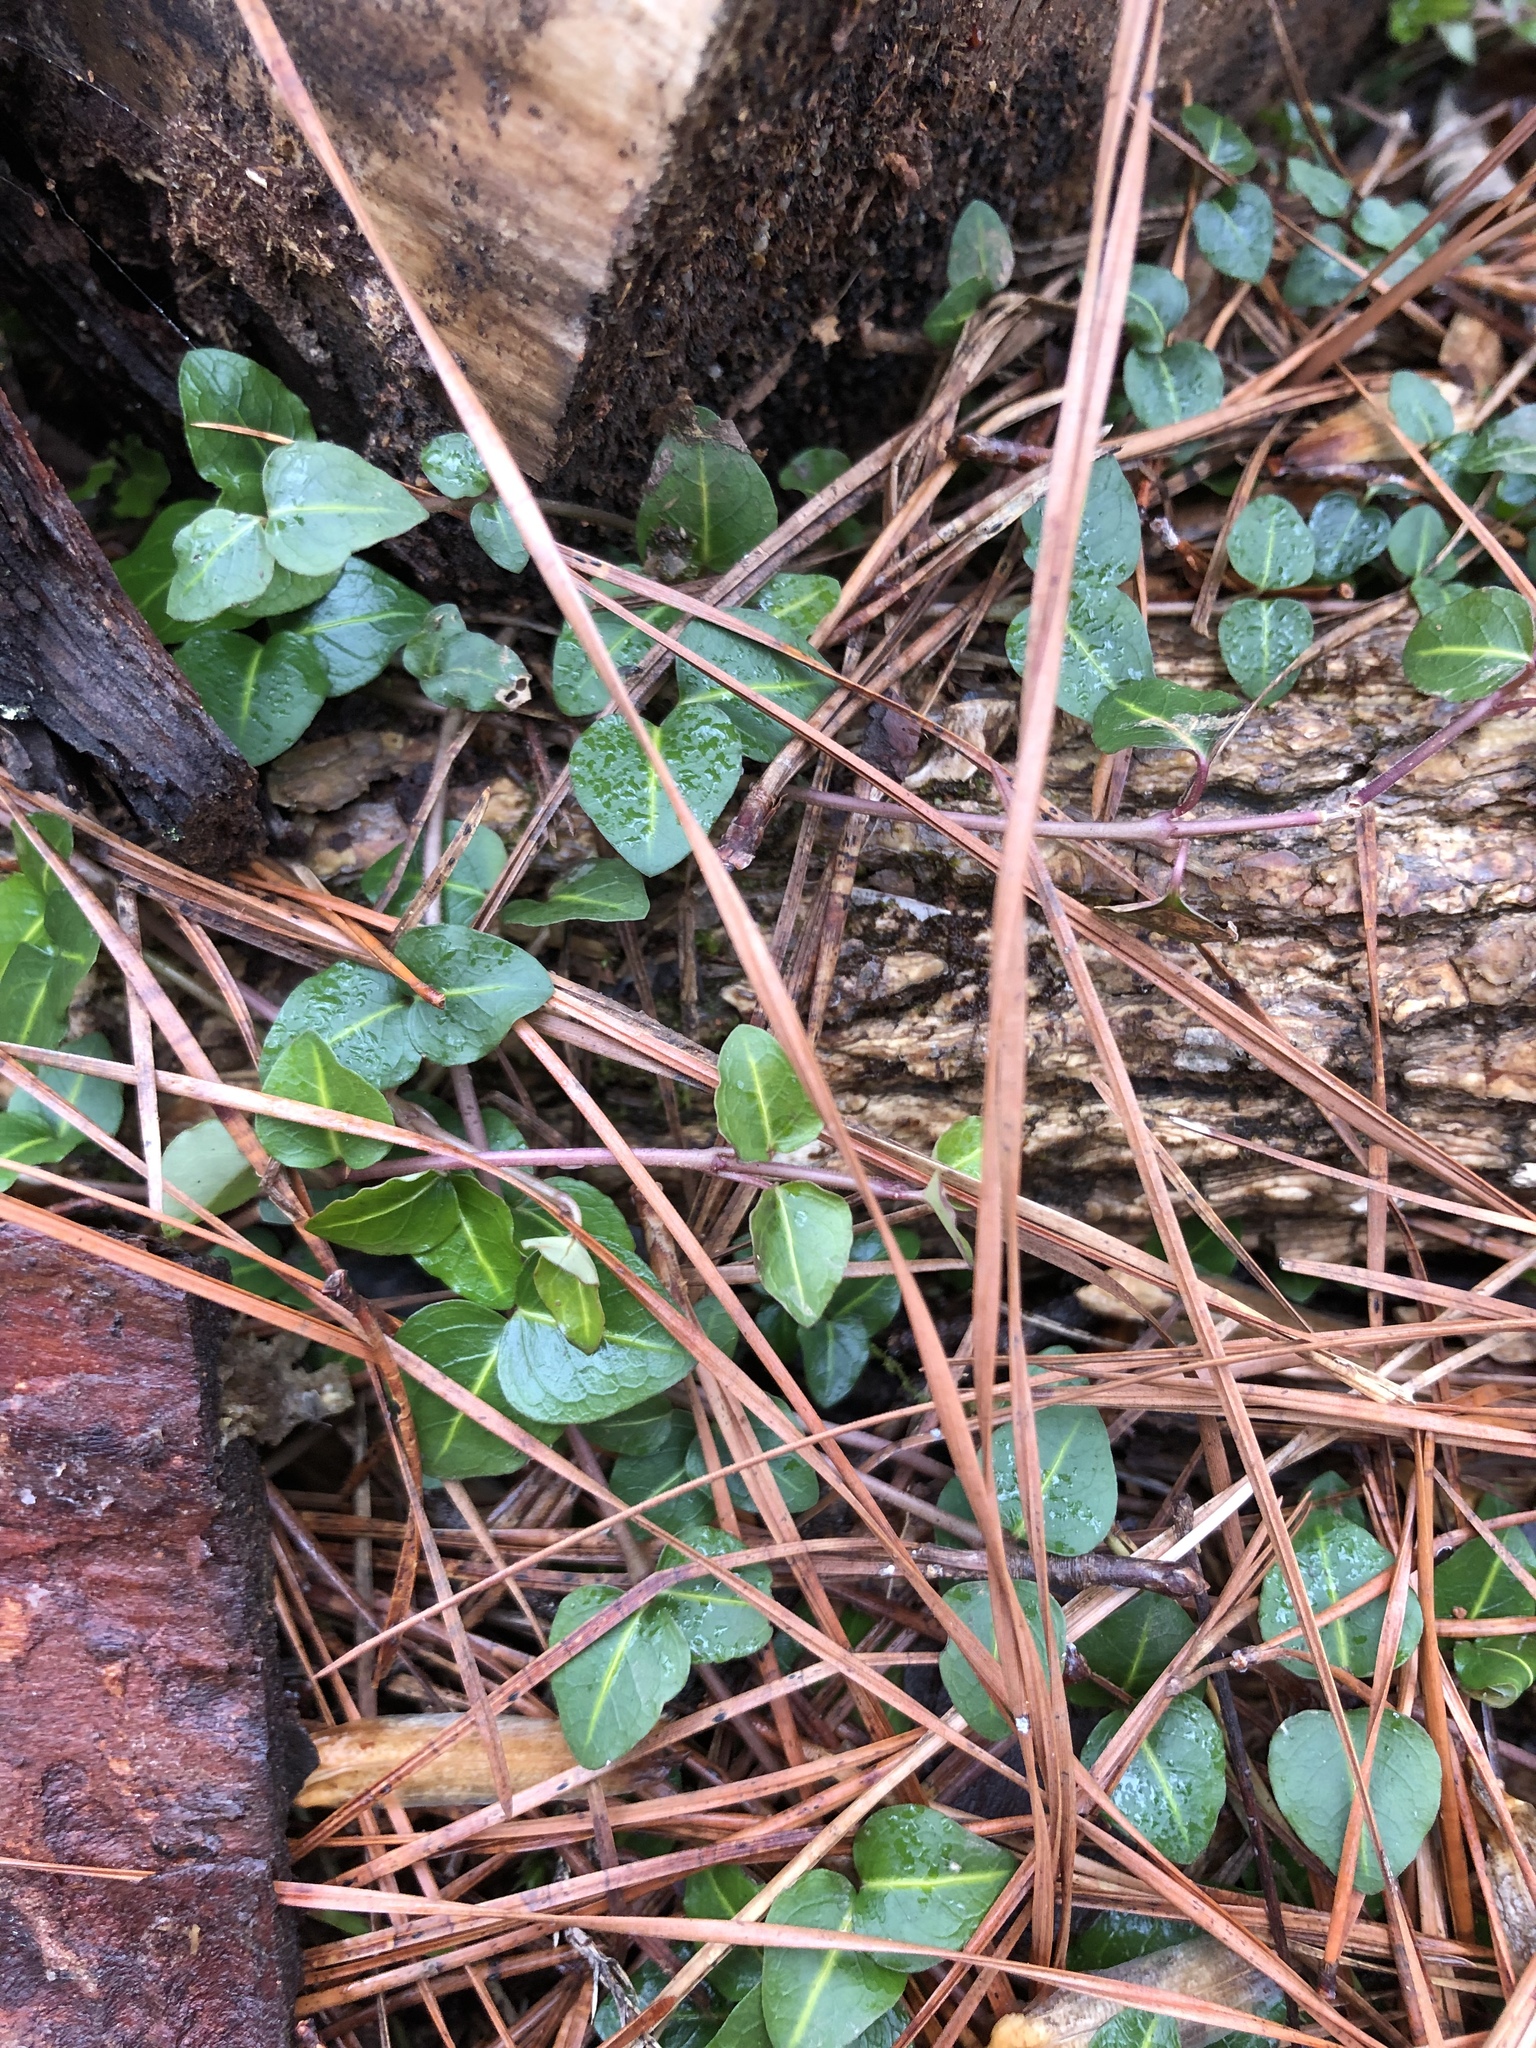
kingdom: Plantae
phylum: Tracheophyta
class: Magnoliopsida
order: Gentianales
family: Rubiaceae
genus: Mitchella
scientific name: Mitchella repens
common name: Partridge-berry
